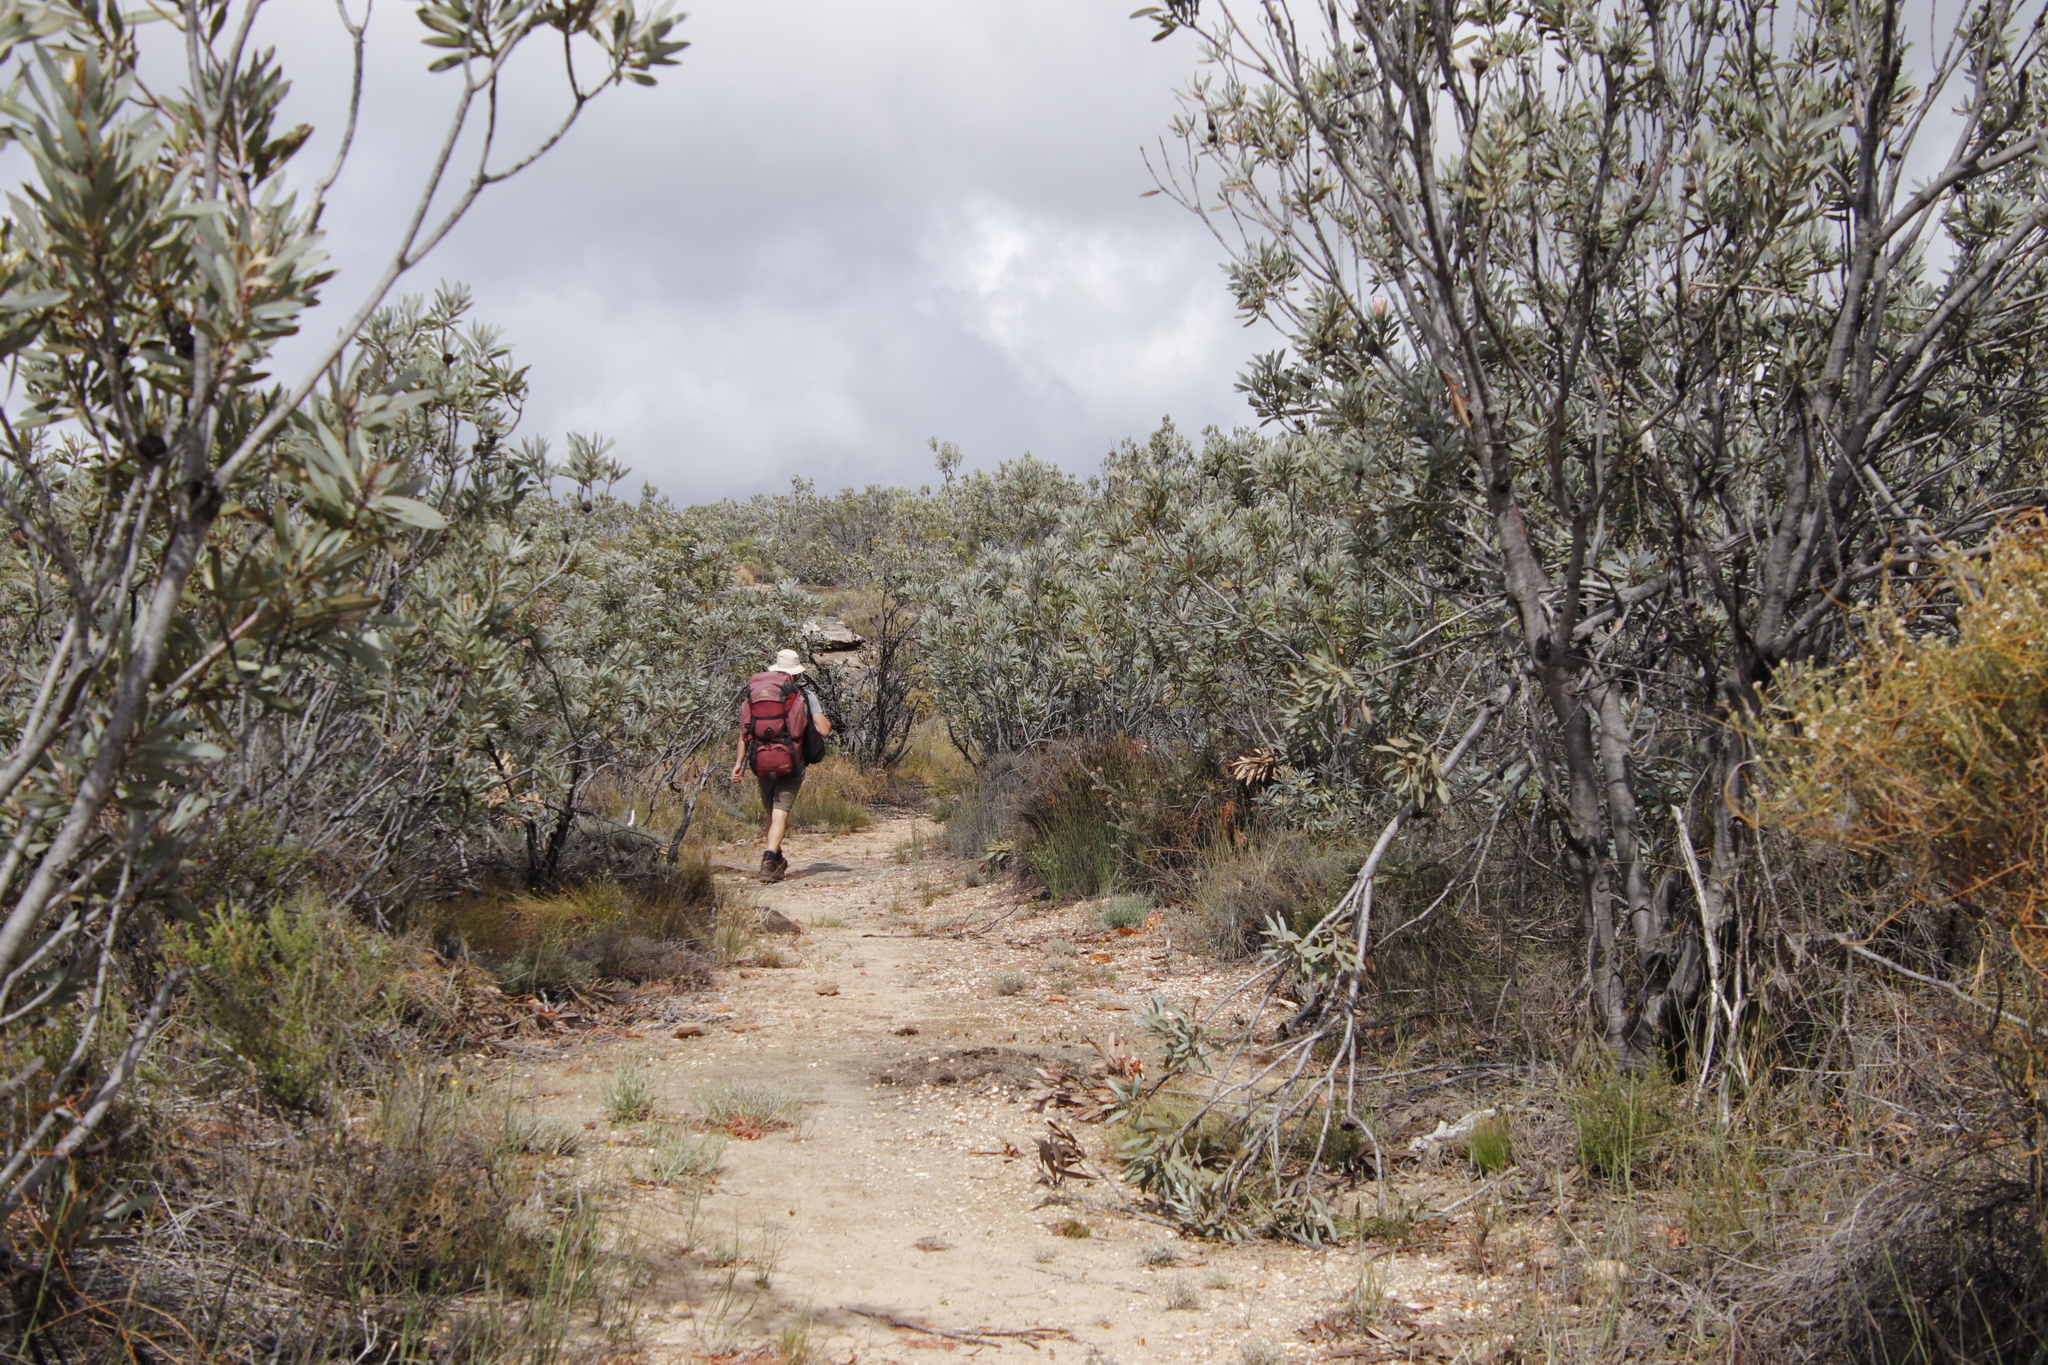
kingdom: Plantae
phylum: Tracheophyta
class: Magnoliopsida
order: Proteales
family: Proteaceae
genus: Protea
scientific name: Protea laurifolia
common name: Grey-leaf sugarbsh
